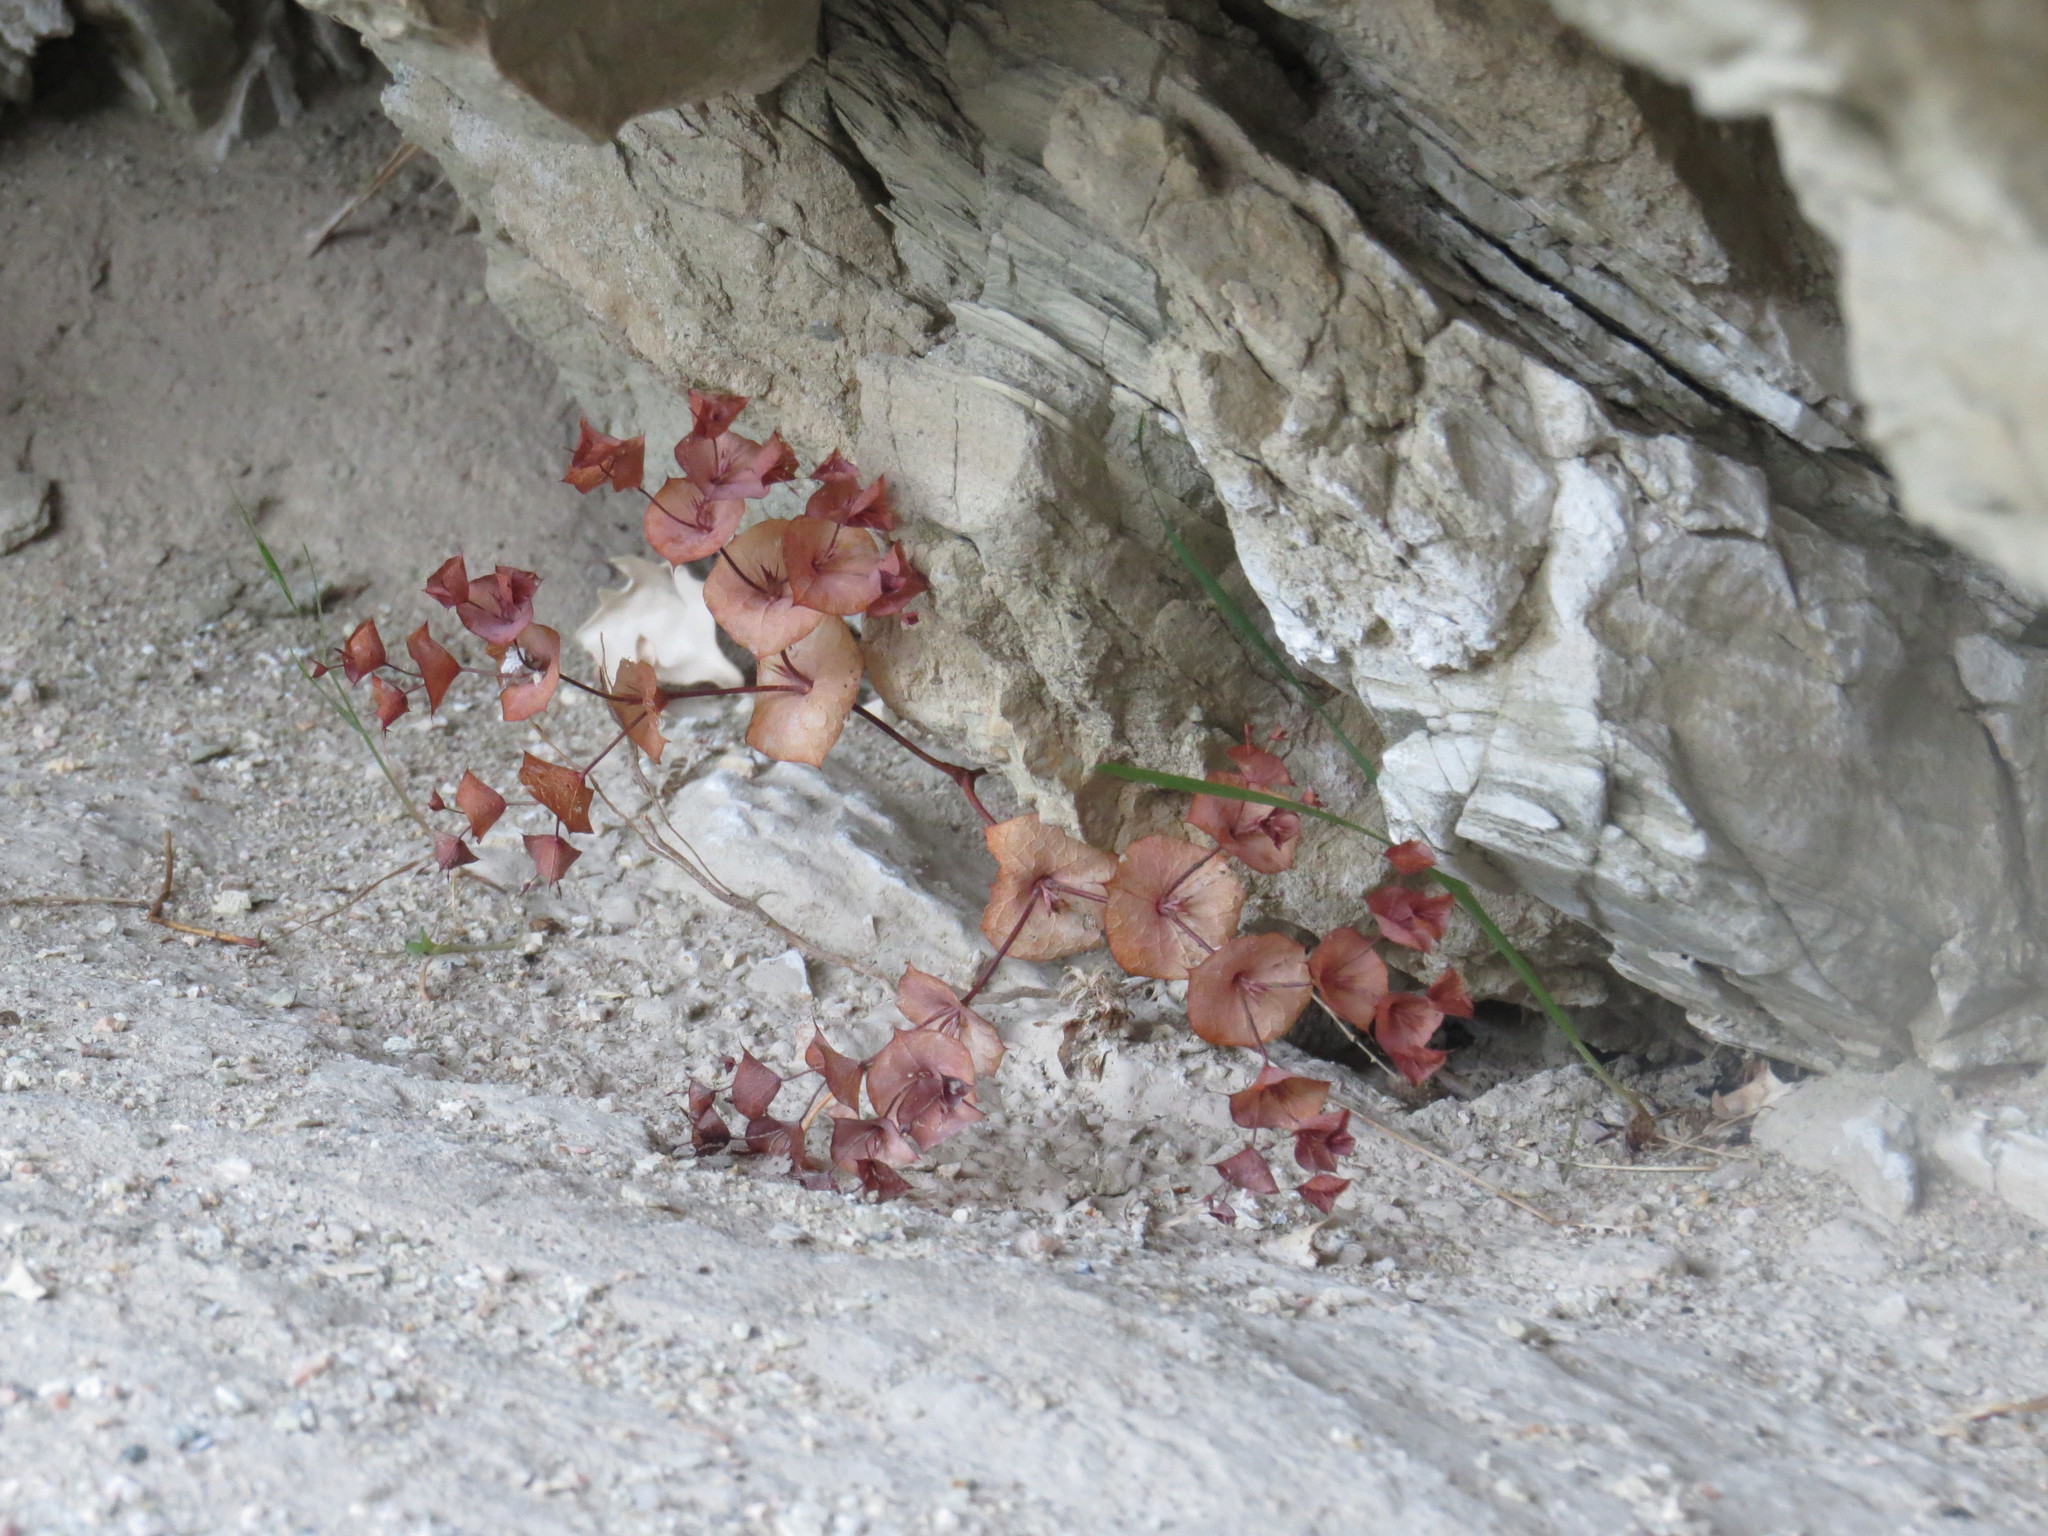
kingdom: Plantae
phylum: Tracheophyta
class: Magnoliopsida
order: Caryophyllales
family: Polygonaceae
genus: Oxytheca
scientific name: Oxytheca perfoliata
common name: Round-leaf puncturebract
